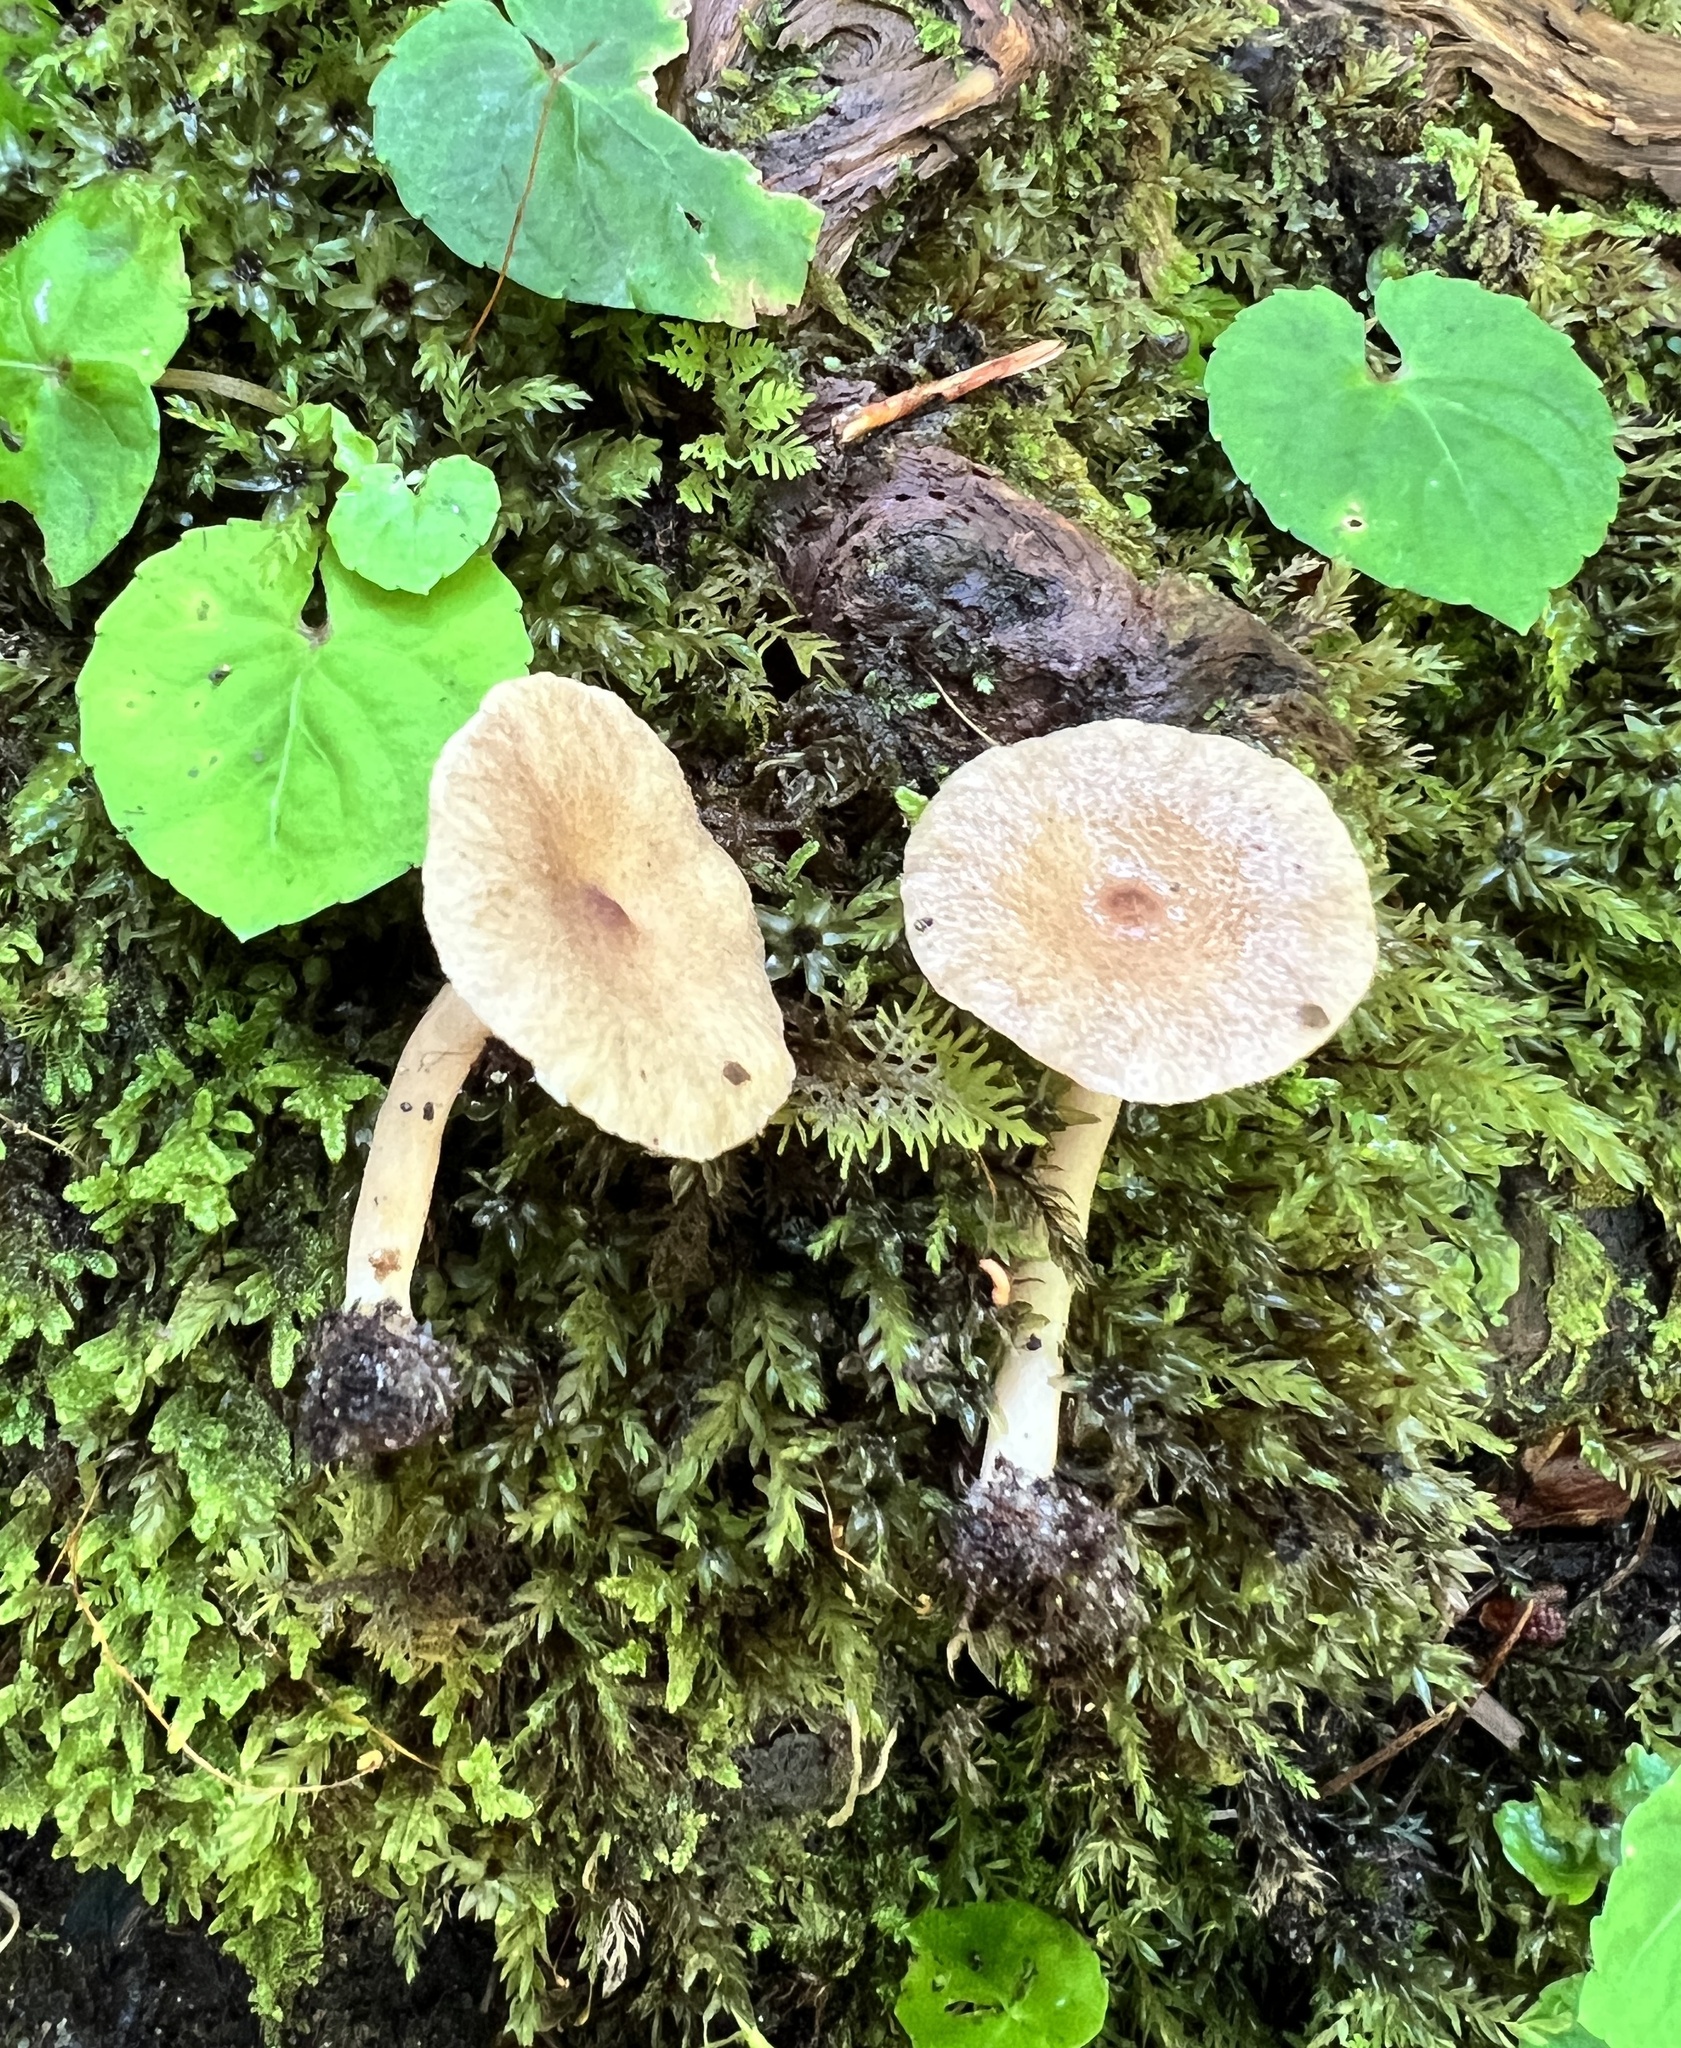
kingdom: Fungi
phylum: Basidiomycota
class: Agaricomycetes
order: Russulales
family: Russulaceae
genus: Lactarius
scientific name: Lactarius griseus
